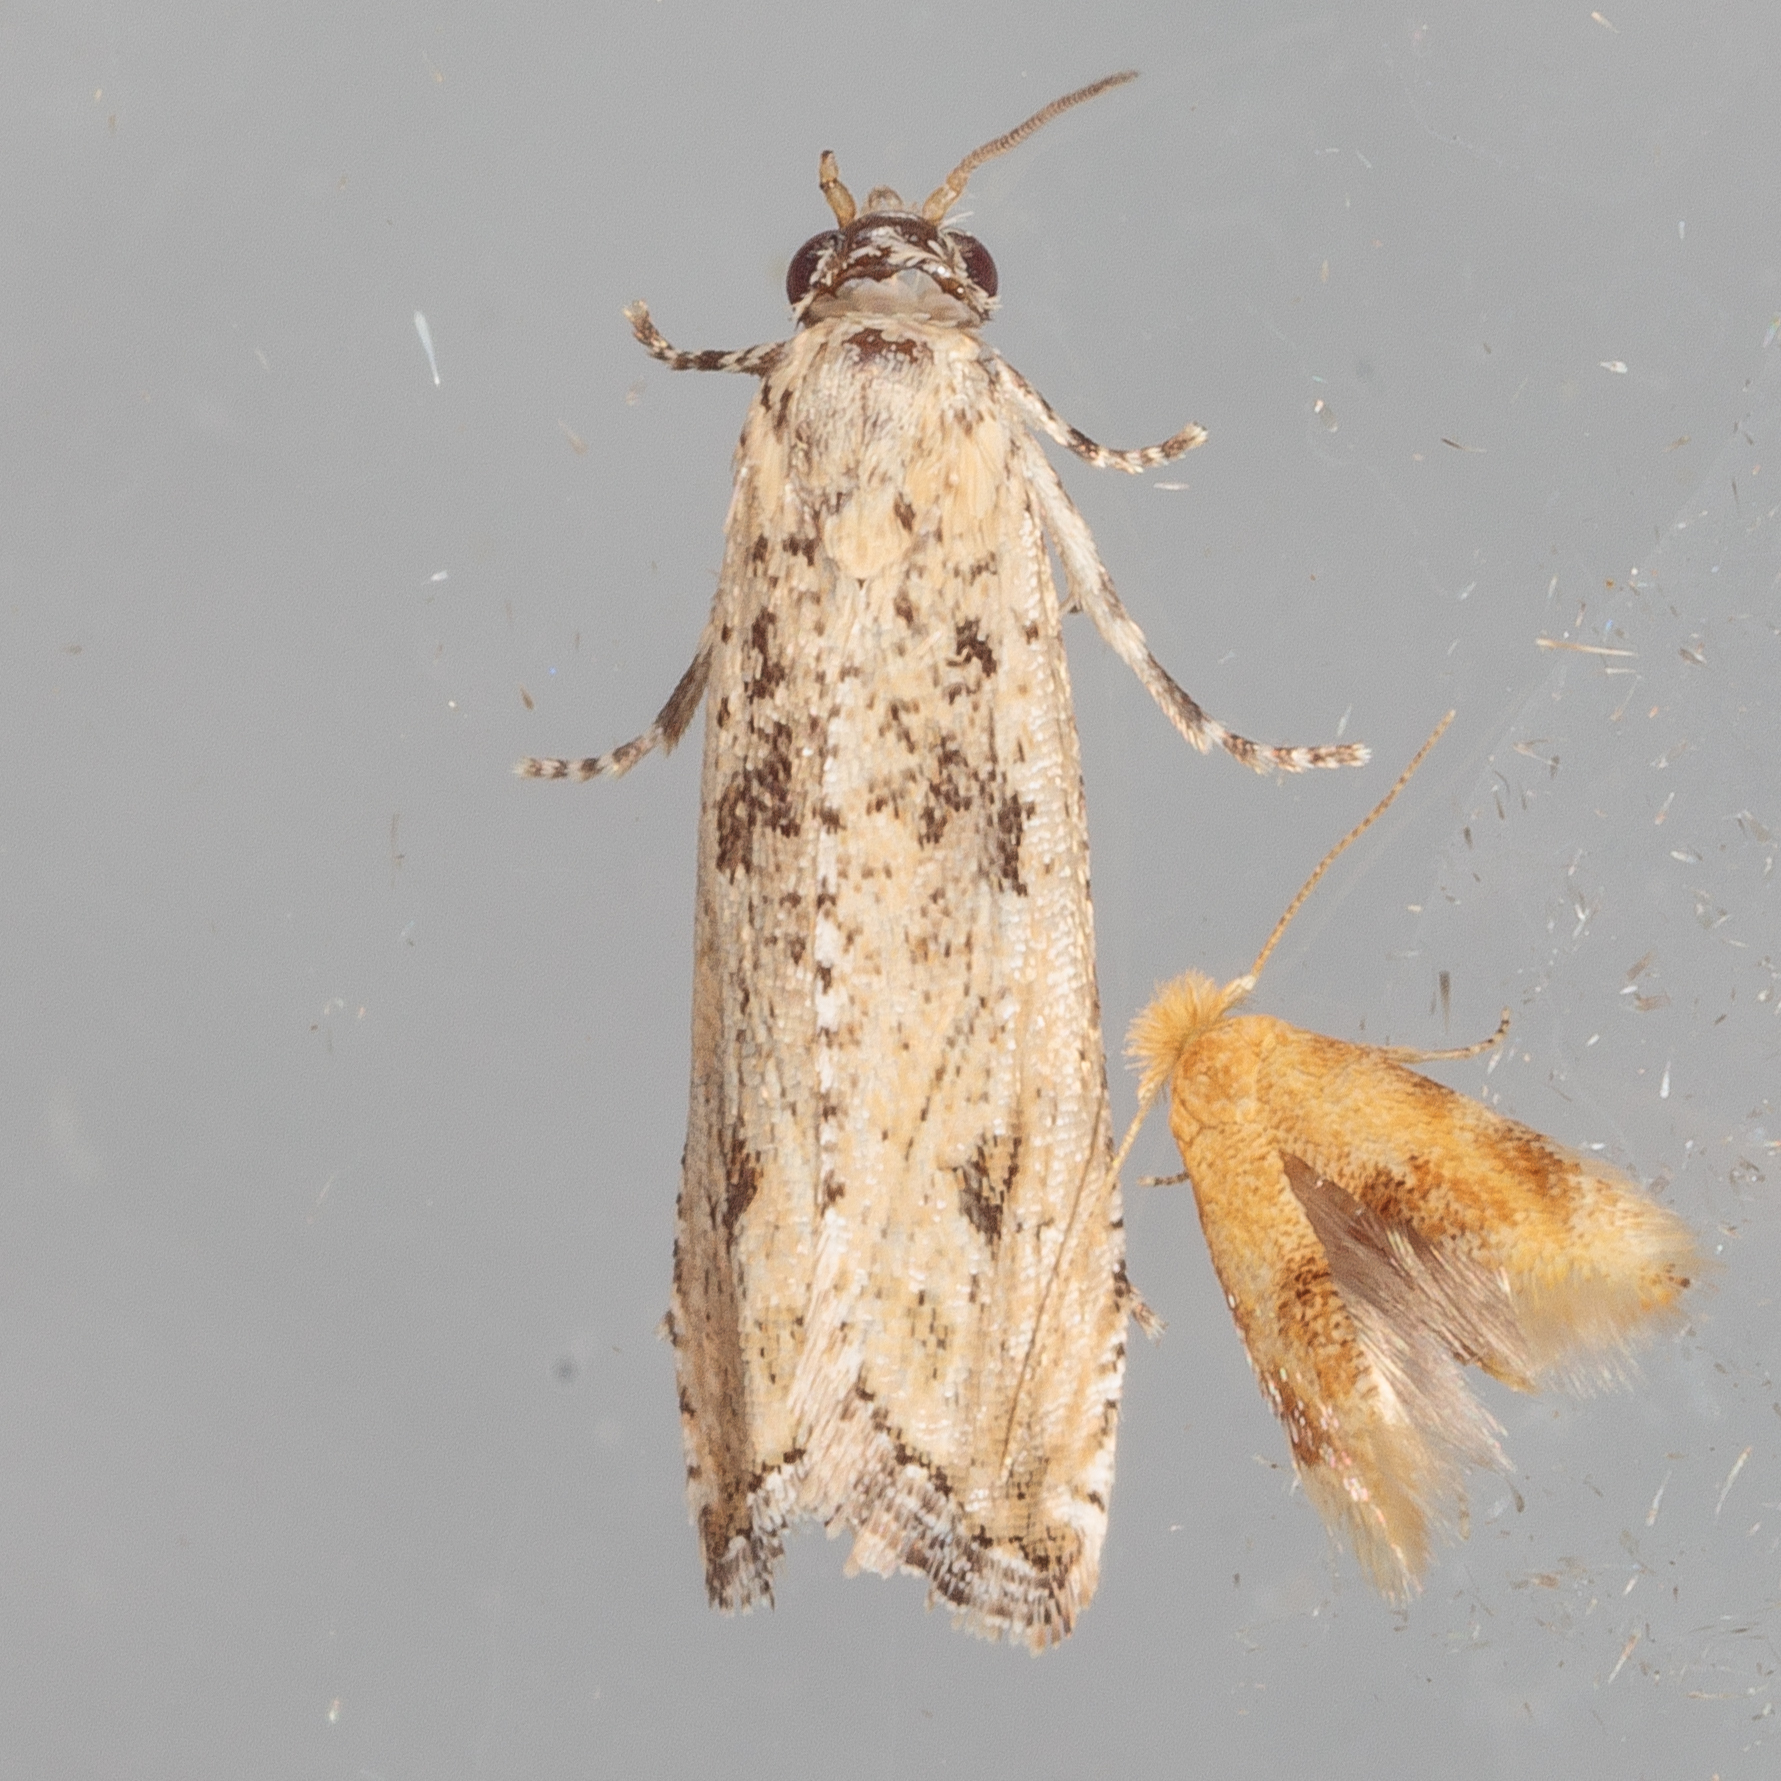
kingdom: Animalia
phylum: Arthropoda
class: Insecta
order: Lepidoptera
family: Tortricidae
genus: Bactra
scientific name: Bactra verutana
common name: Javelin moth
